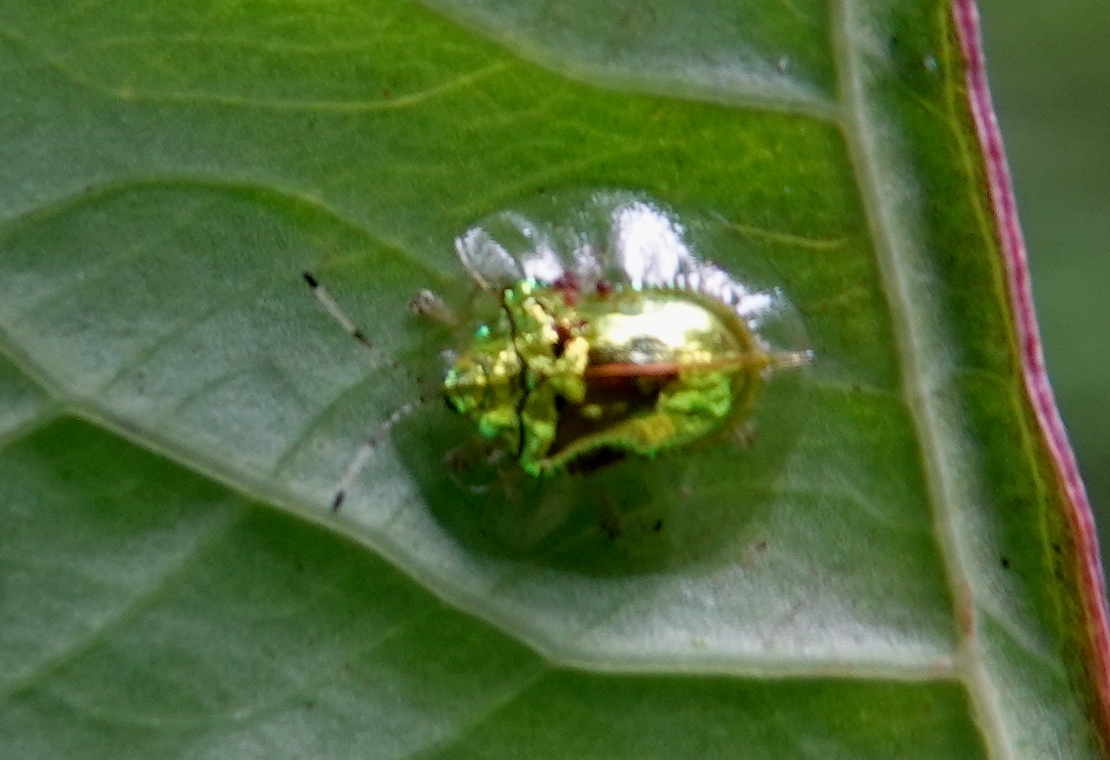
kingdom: Animalia
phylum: Arthropoda
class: Insecta
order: Coleoptera
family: Chrysomelidae
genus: Plagiometriona
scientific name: Plagiometriona boschmai
